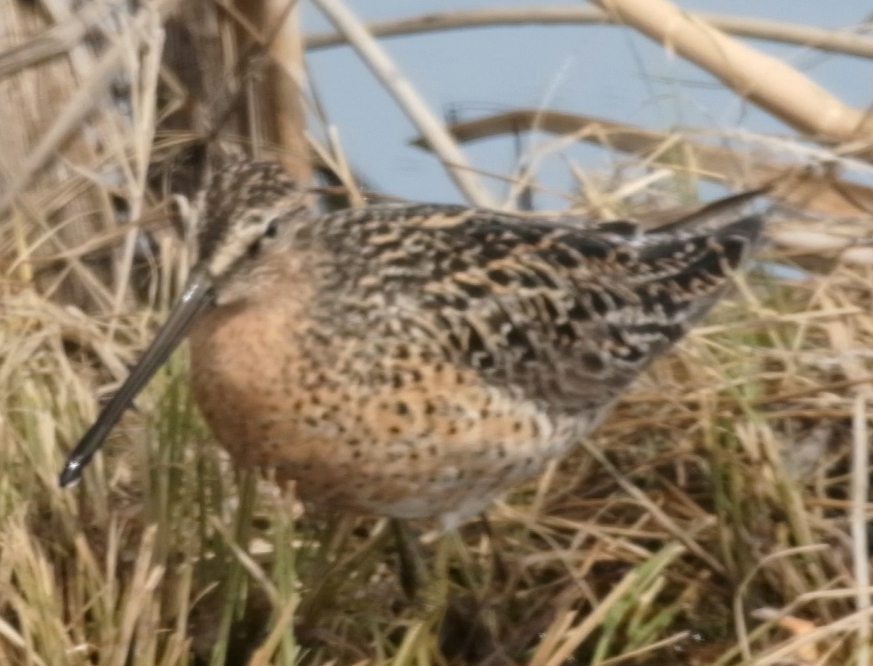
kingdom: Animalia
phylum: Chordata
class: Aves
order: Charadriiformes
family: Scolopacidae
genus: Limnodromus
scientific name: Limnodromus griseus
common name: Short-billed dowitcher
